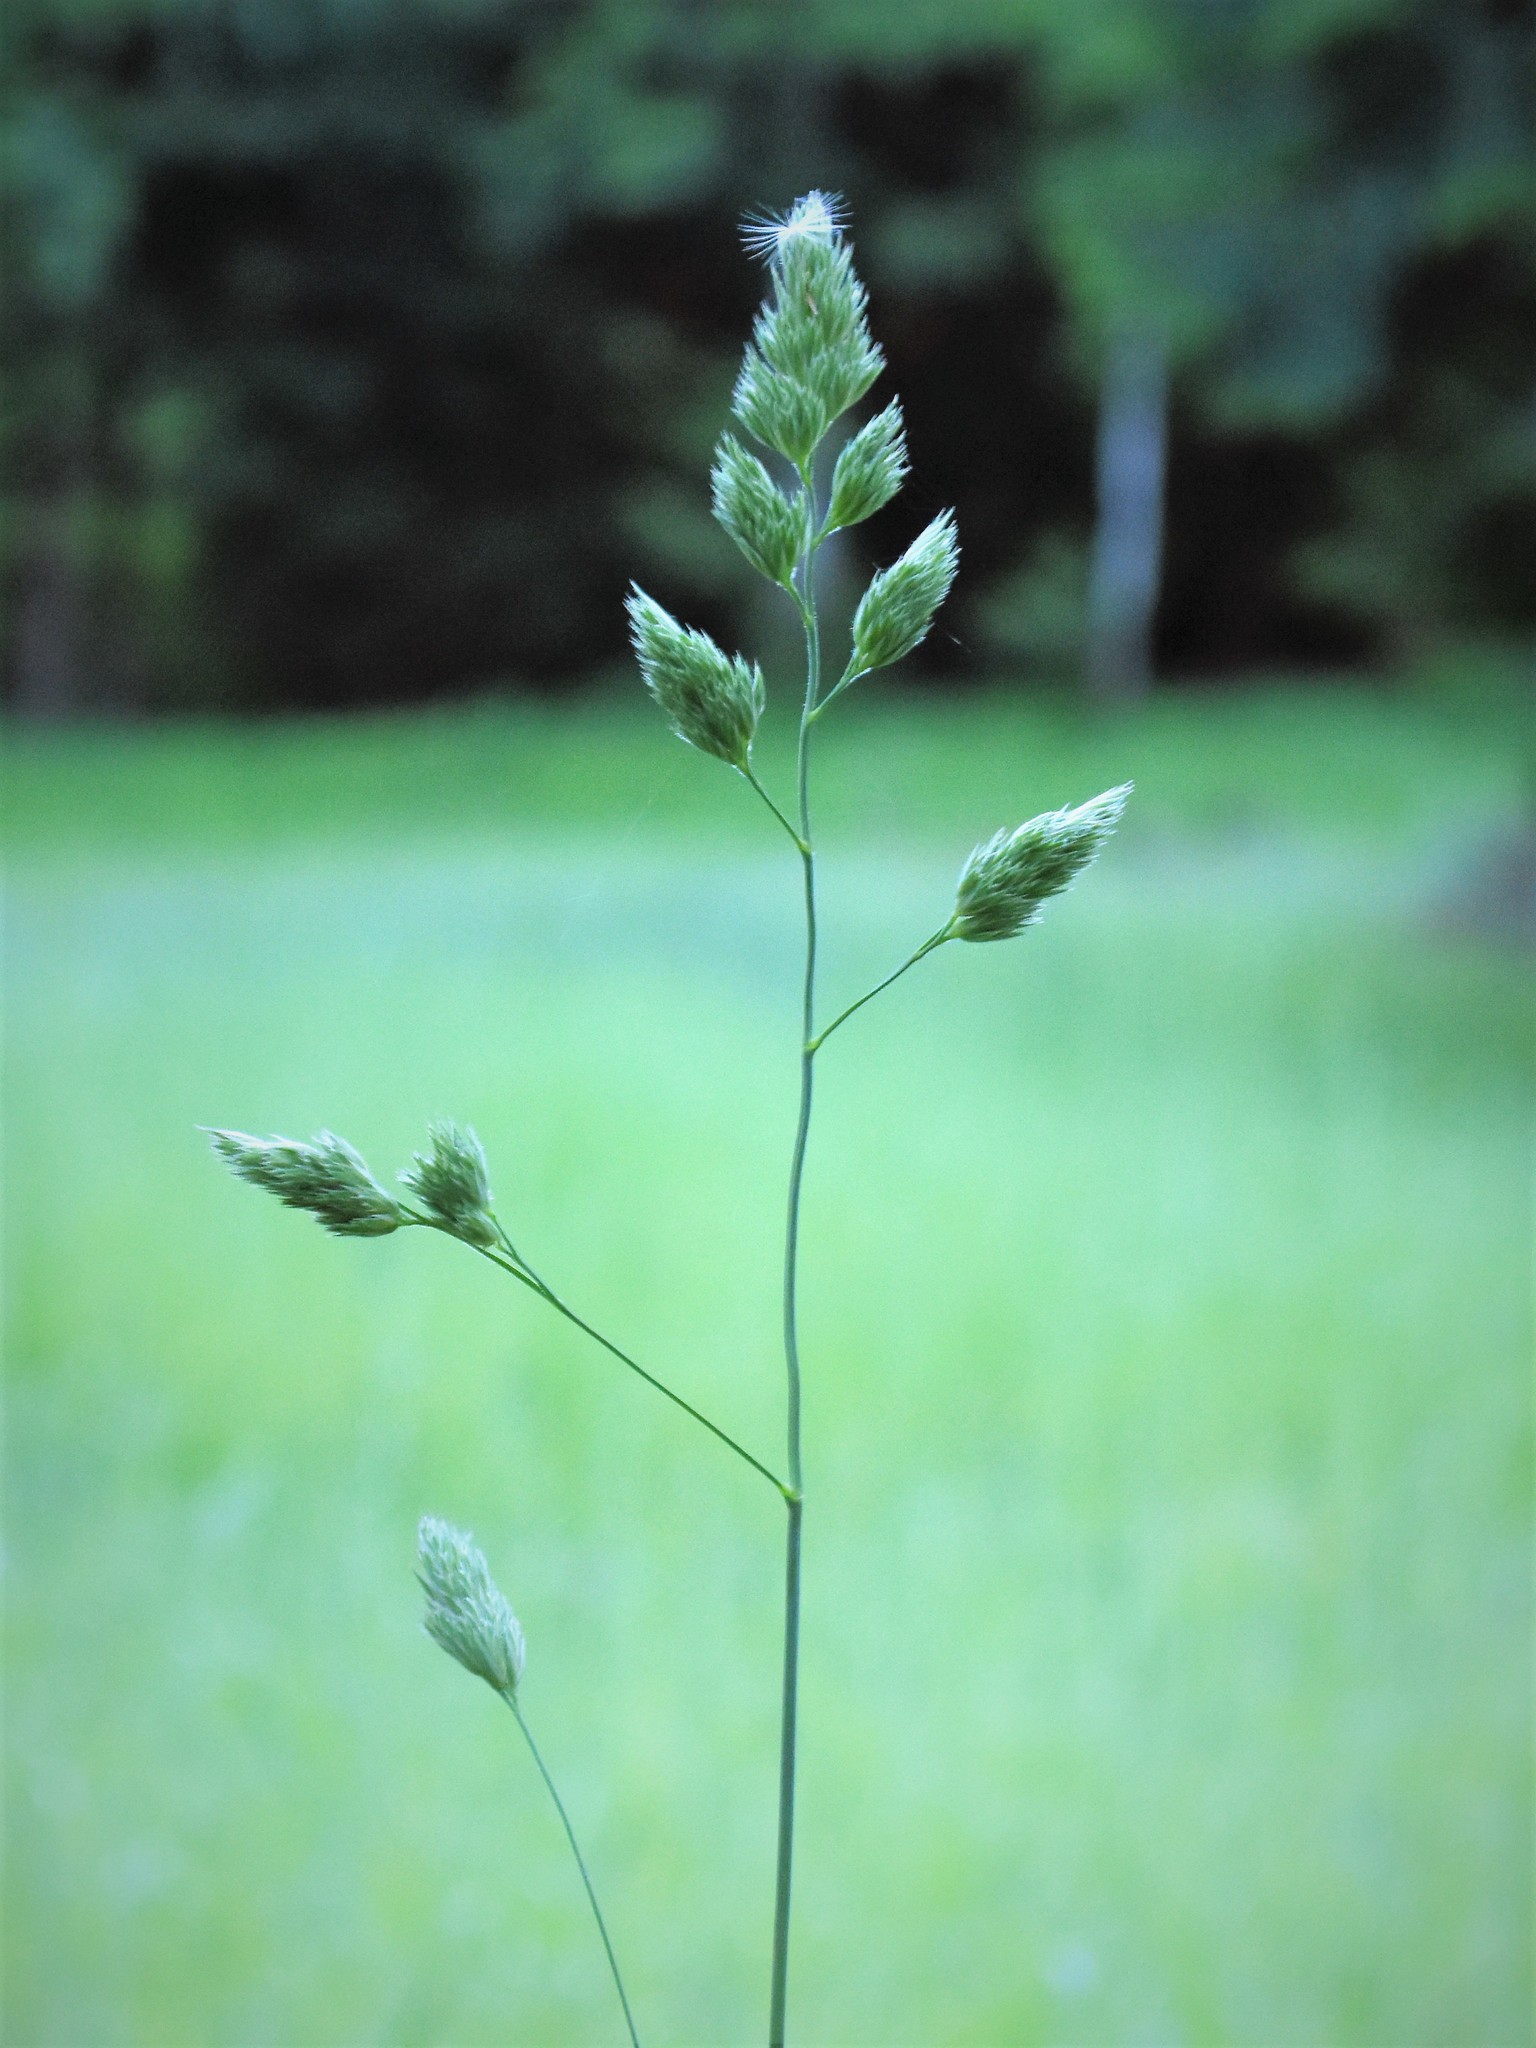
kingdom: Plantae
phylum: Tracheophyta
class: Liliopsida
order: Poales
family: Poaceae
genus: Dactylis
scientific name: Dactylis glomerata
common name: Orchardgrass
